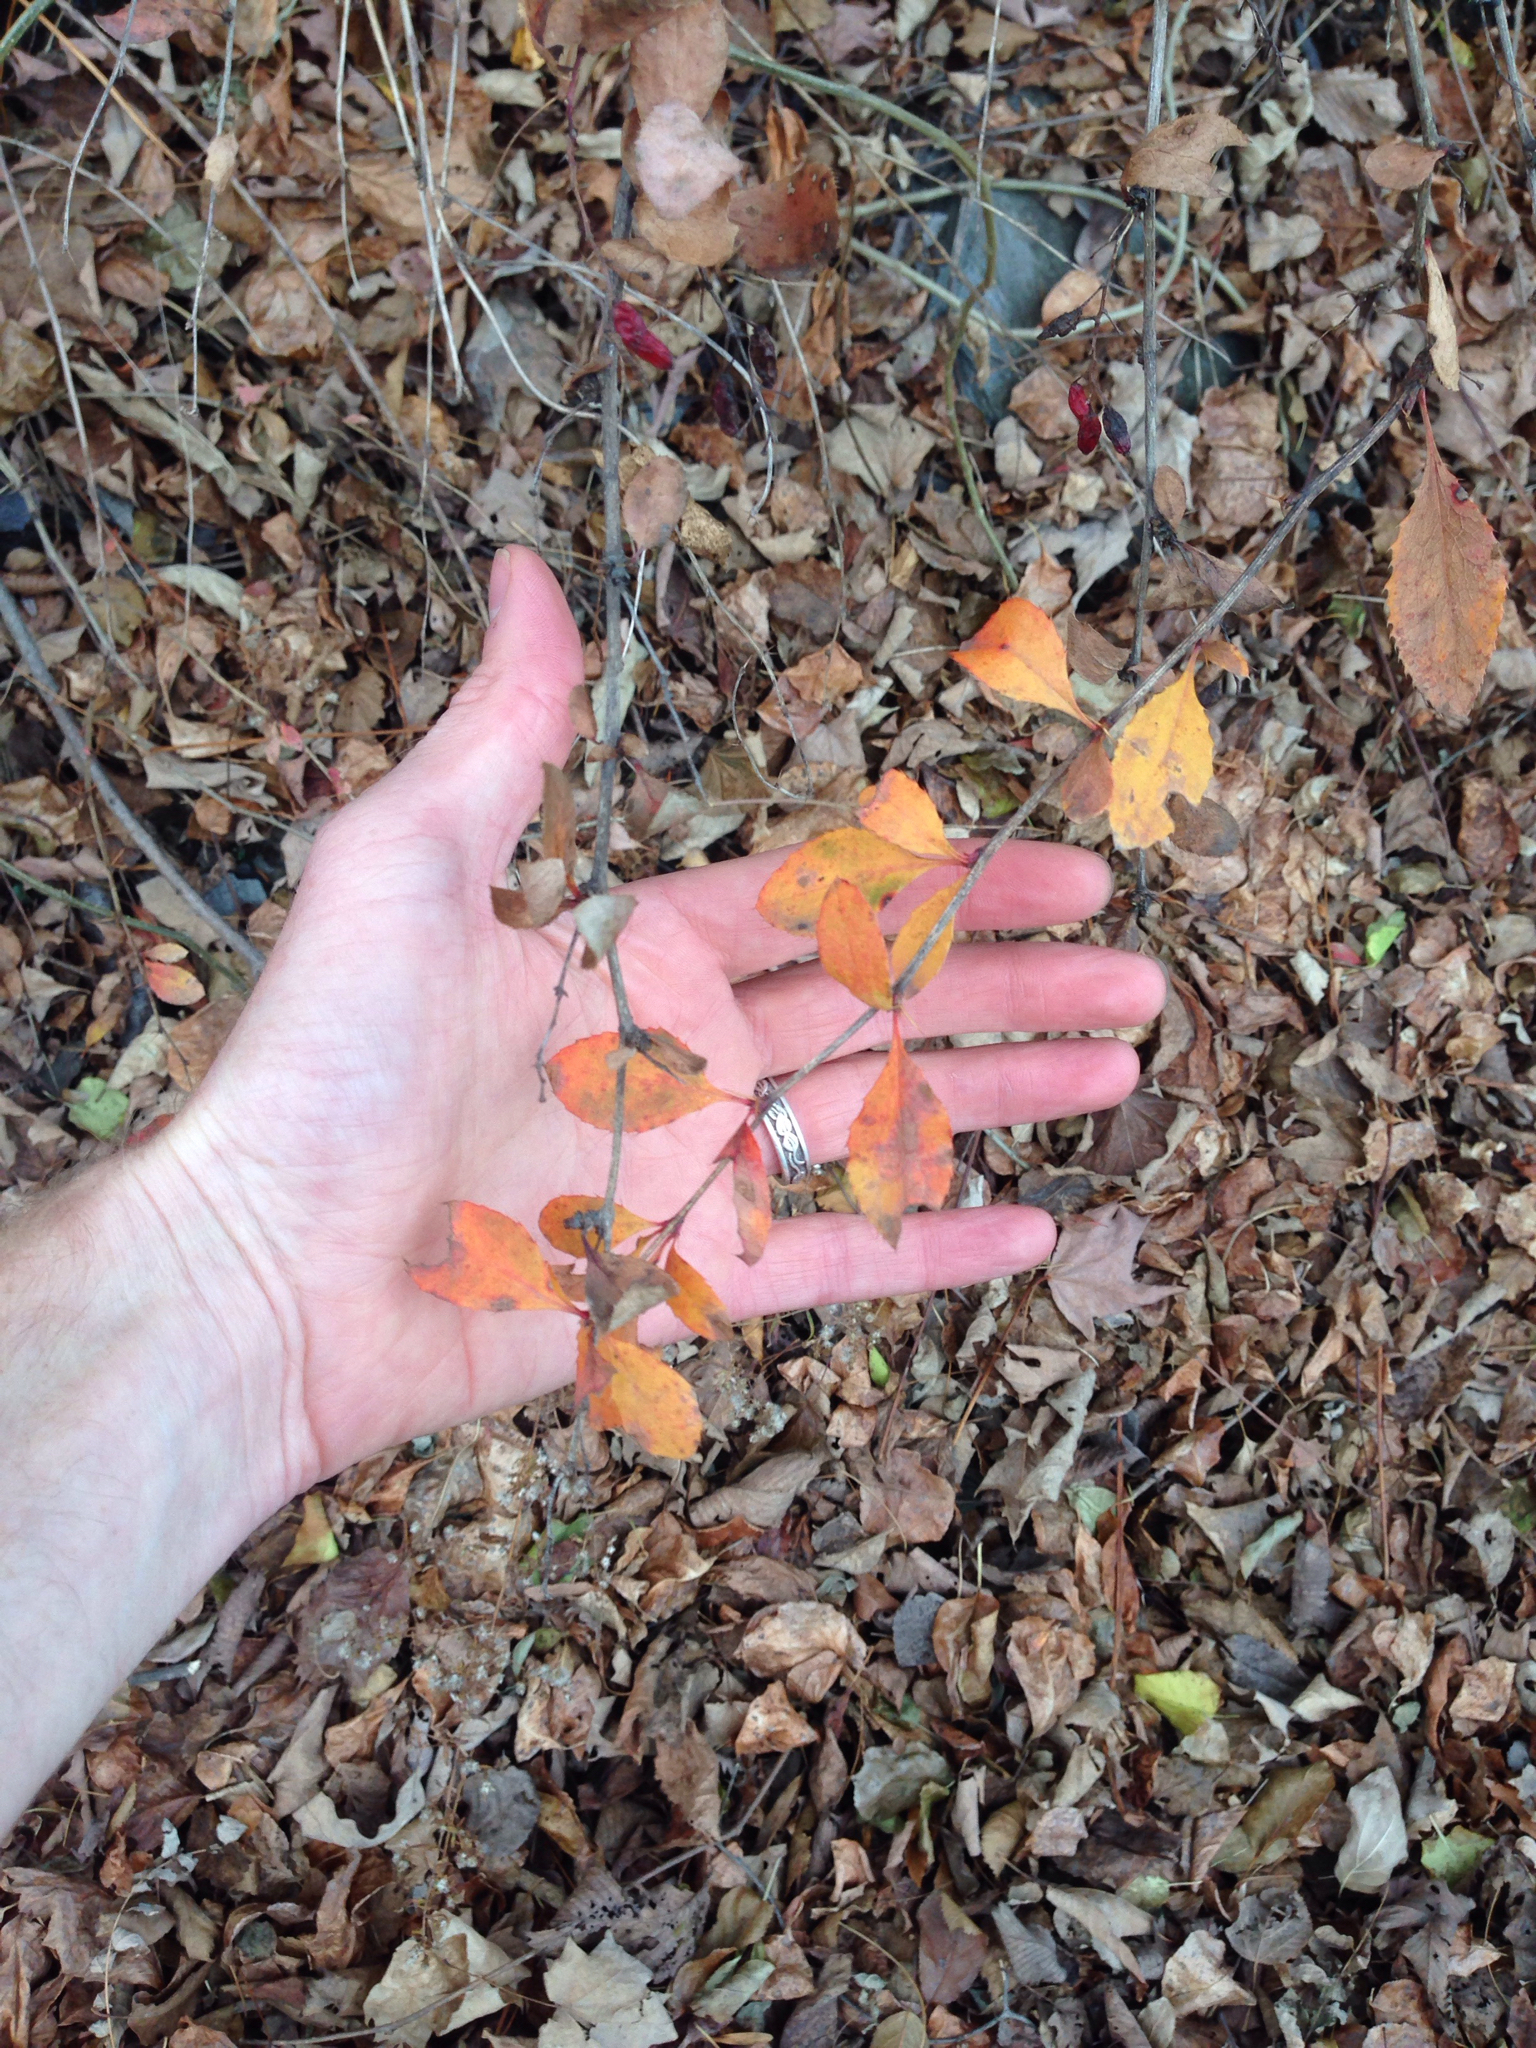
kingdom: Plantae
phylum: Tracheophyta
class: Magnoliopsida
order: Ranunculales
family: Berberidaceae
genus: Berberis
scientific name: Berberis vulgaris
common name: Barberry
